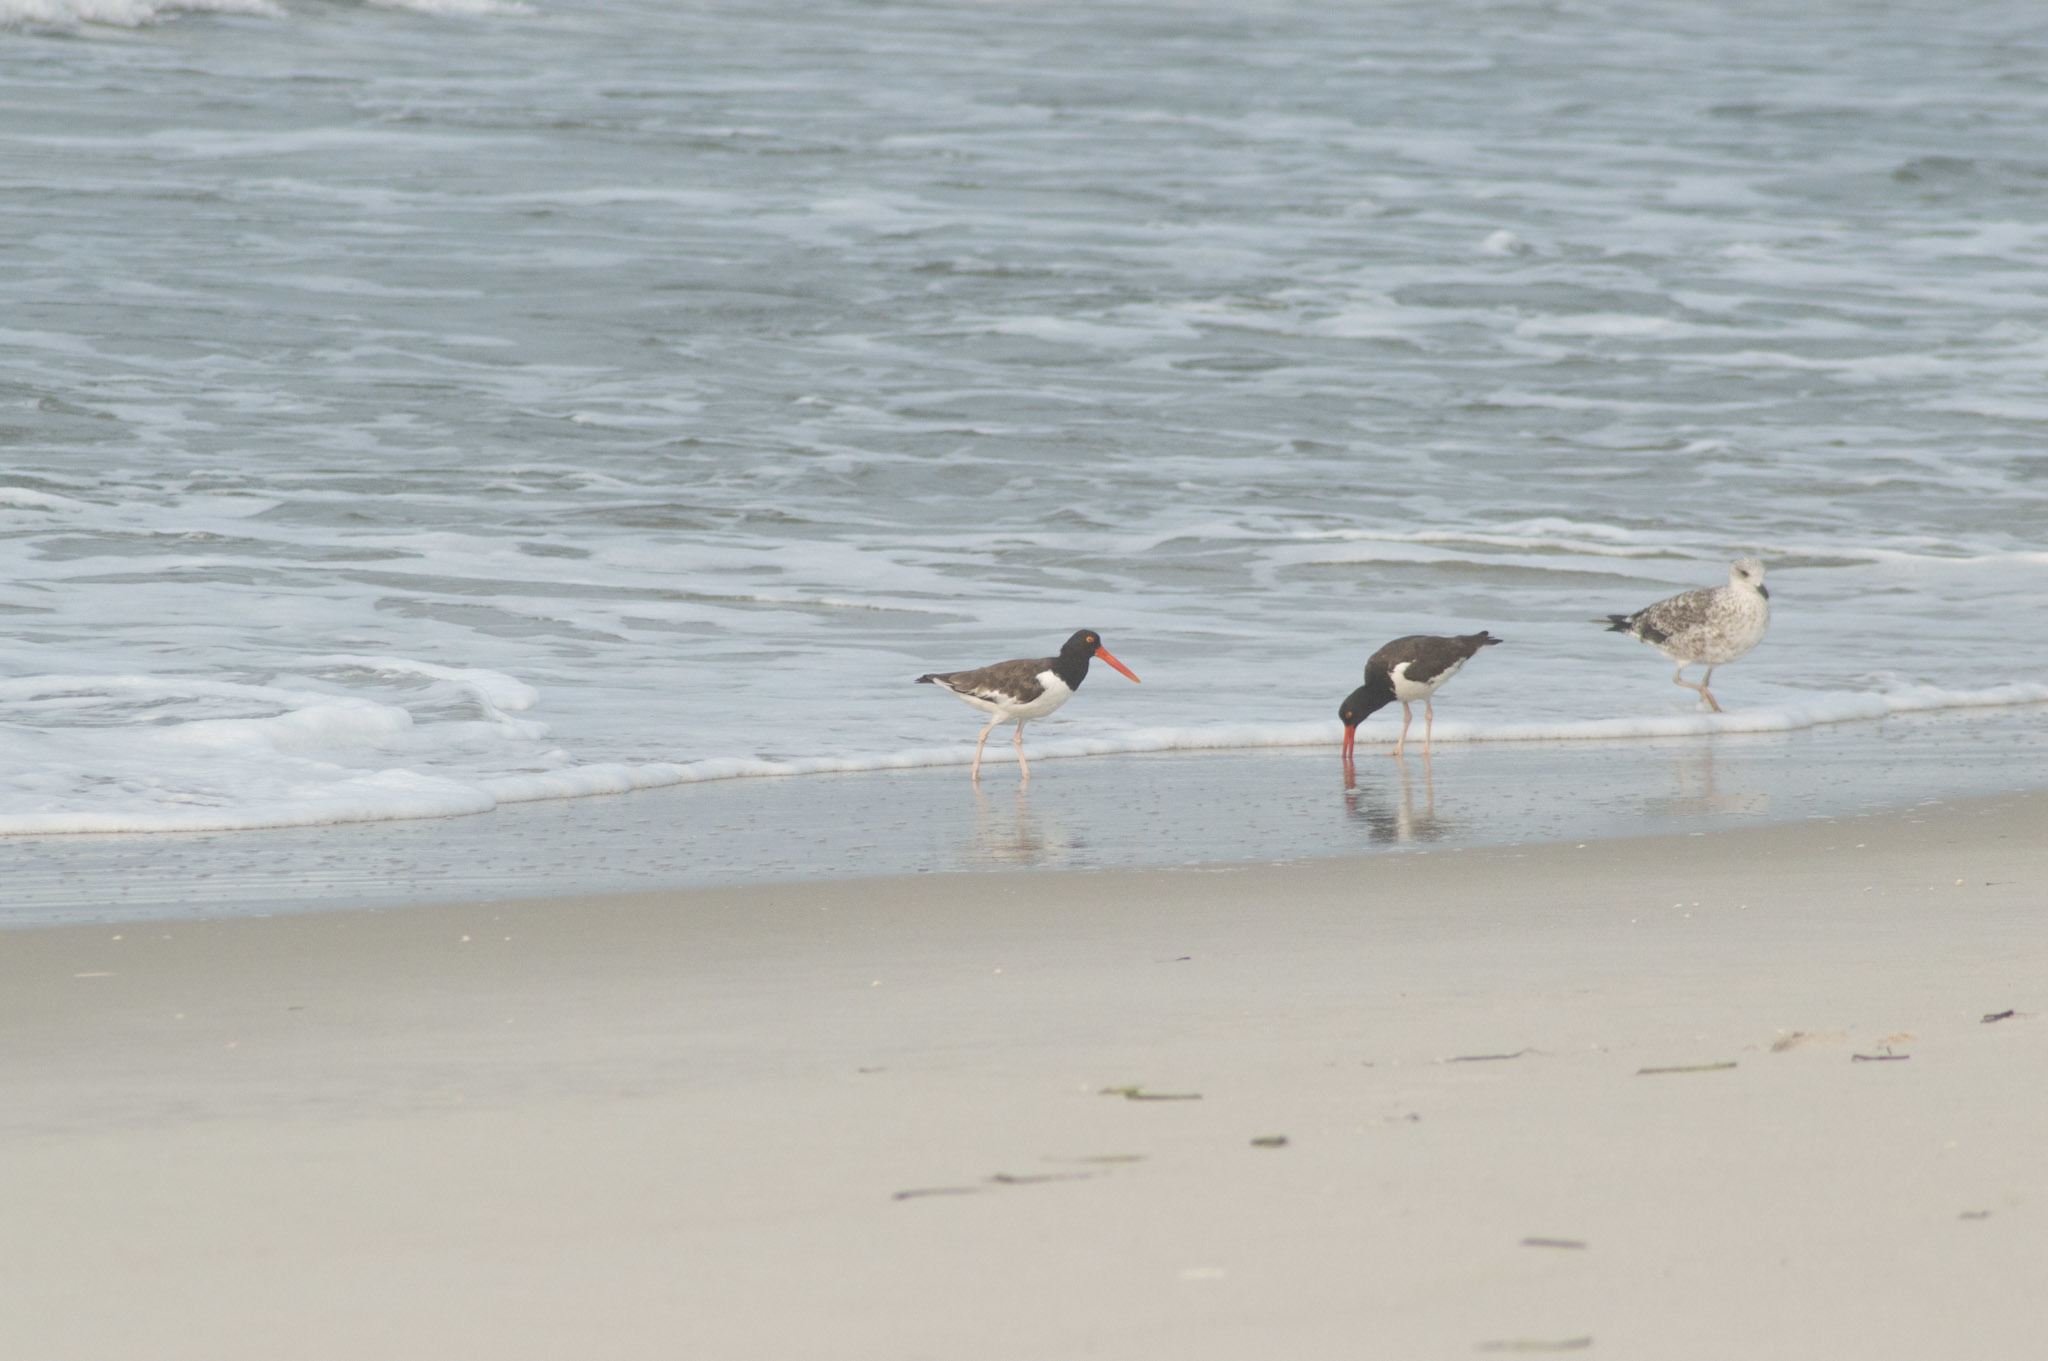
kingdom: Animalia
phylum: Chordata
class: Aves
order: Charadriiformes
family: Haematopodidae
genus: Haematopus
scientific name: Haematopus palliatus
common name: American oystercatcher
